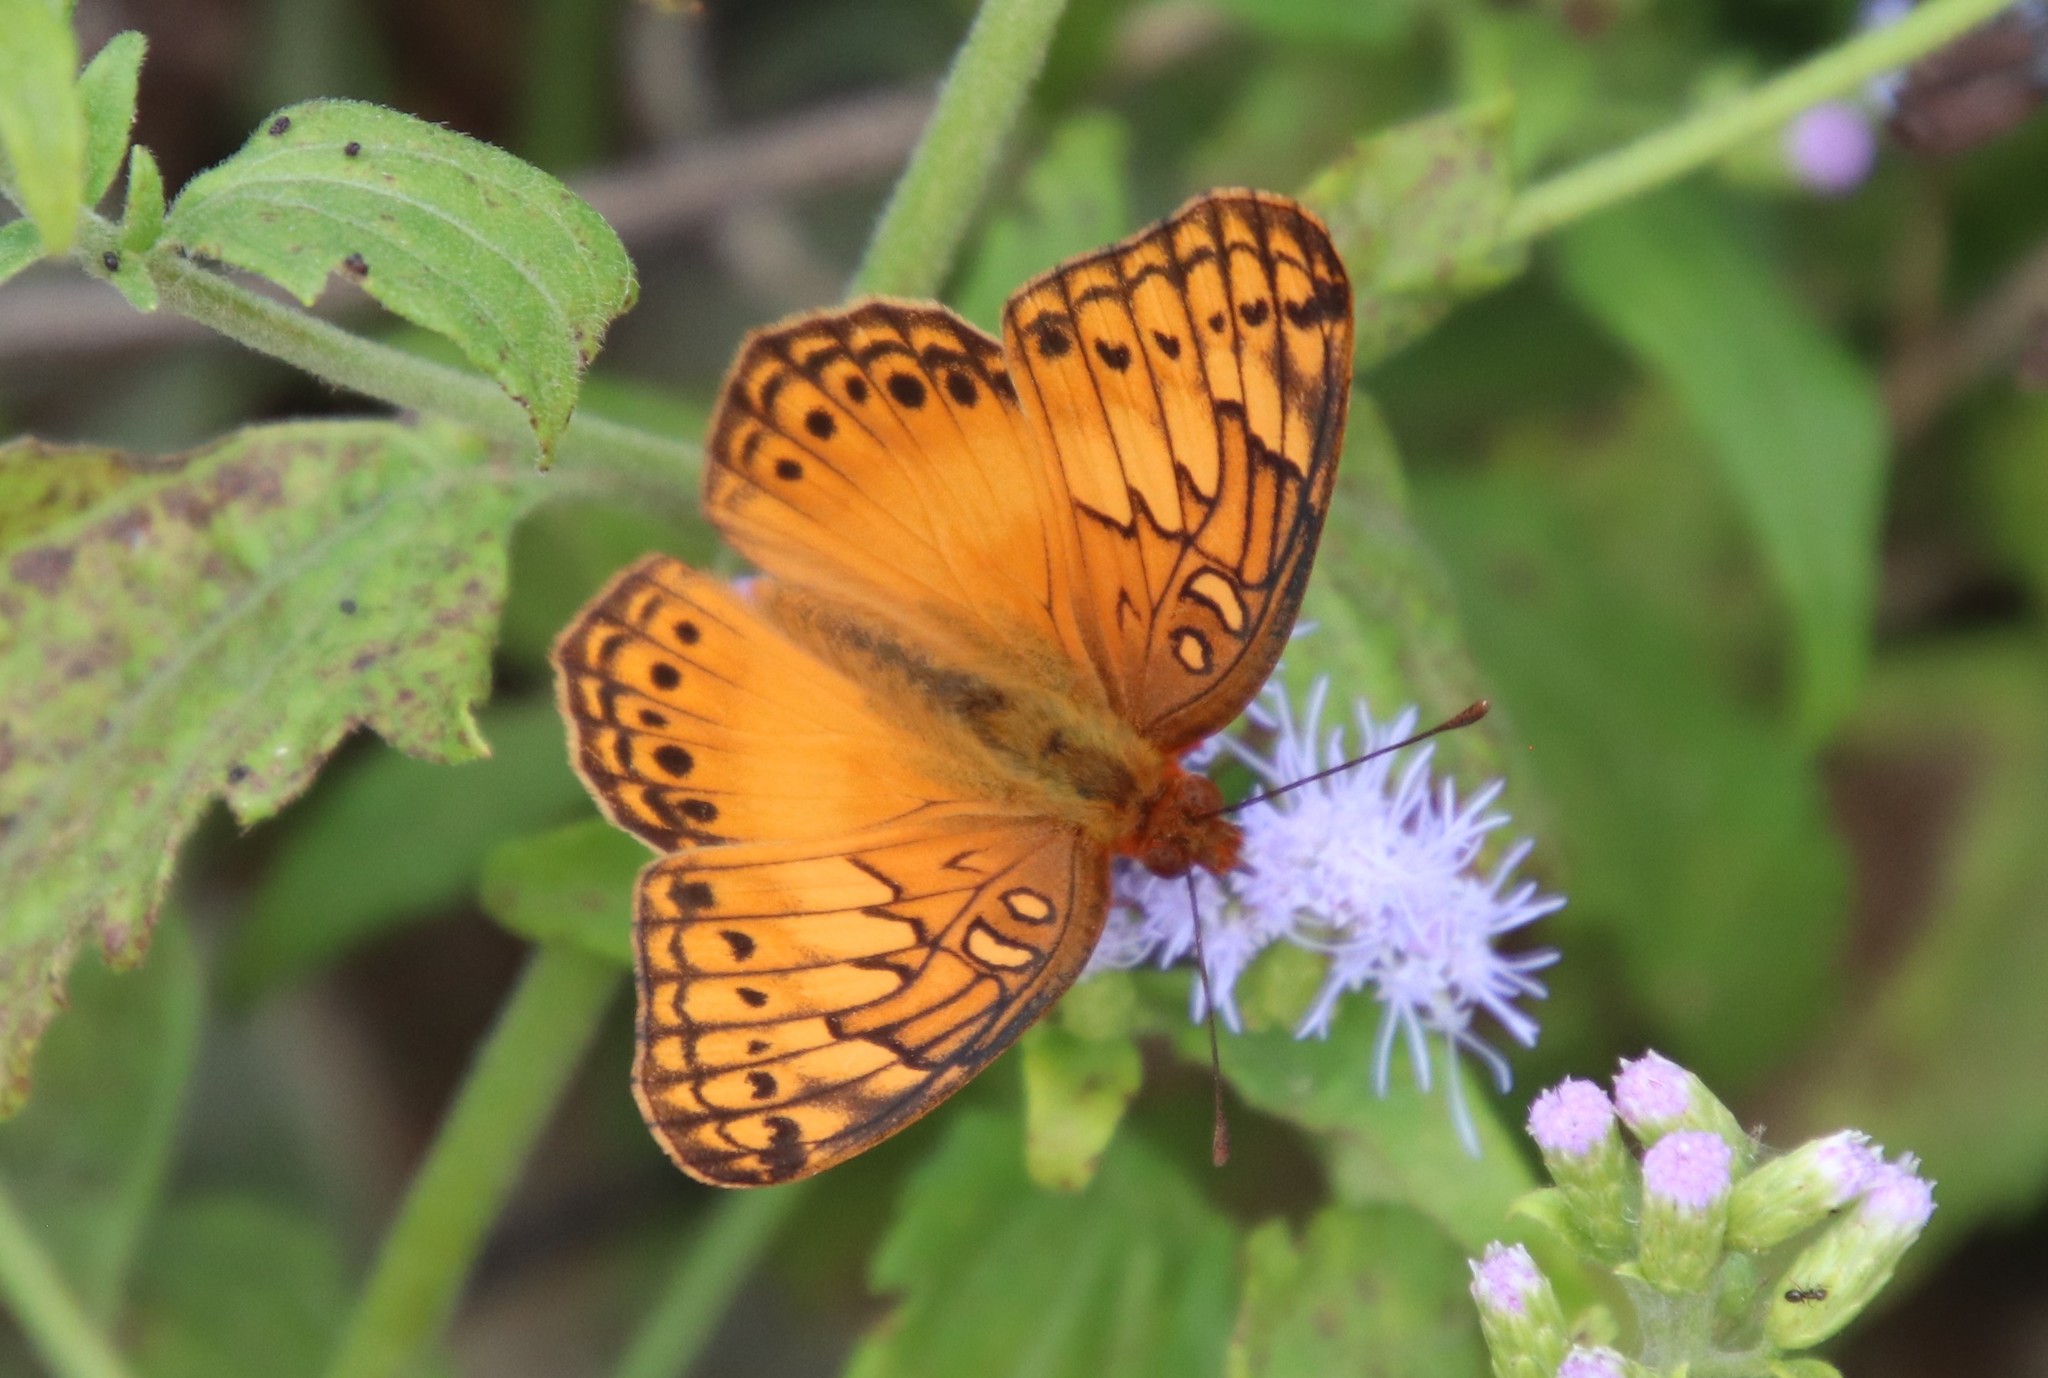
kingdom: Animalia
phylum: Arthropoda
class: Insecta
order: Lepidoptera
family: Nymphalidae
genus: Euptoieta
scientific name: Euptoieta hegesia
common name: Mexican fritillary
